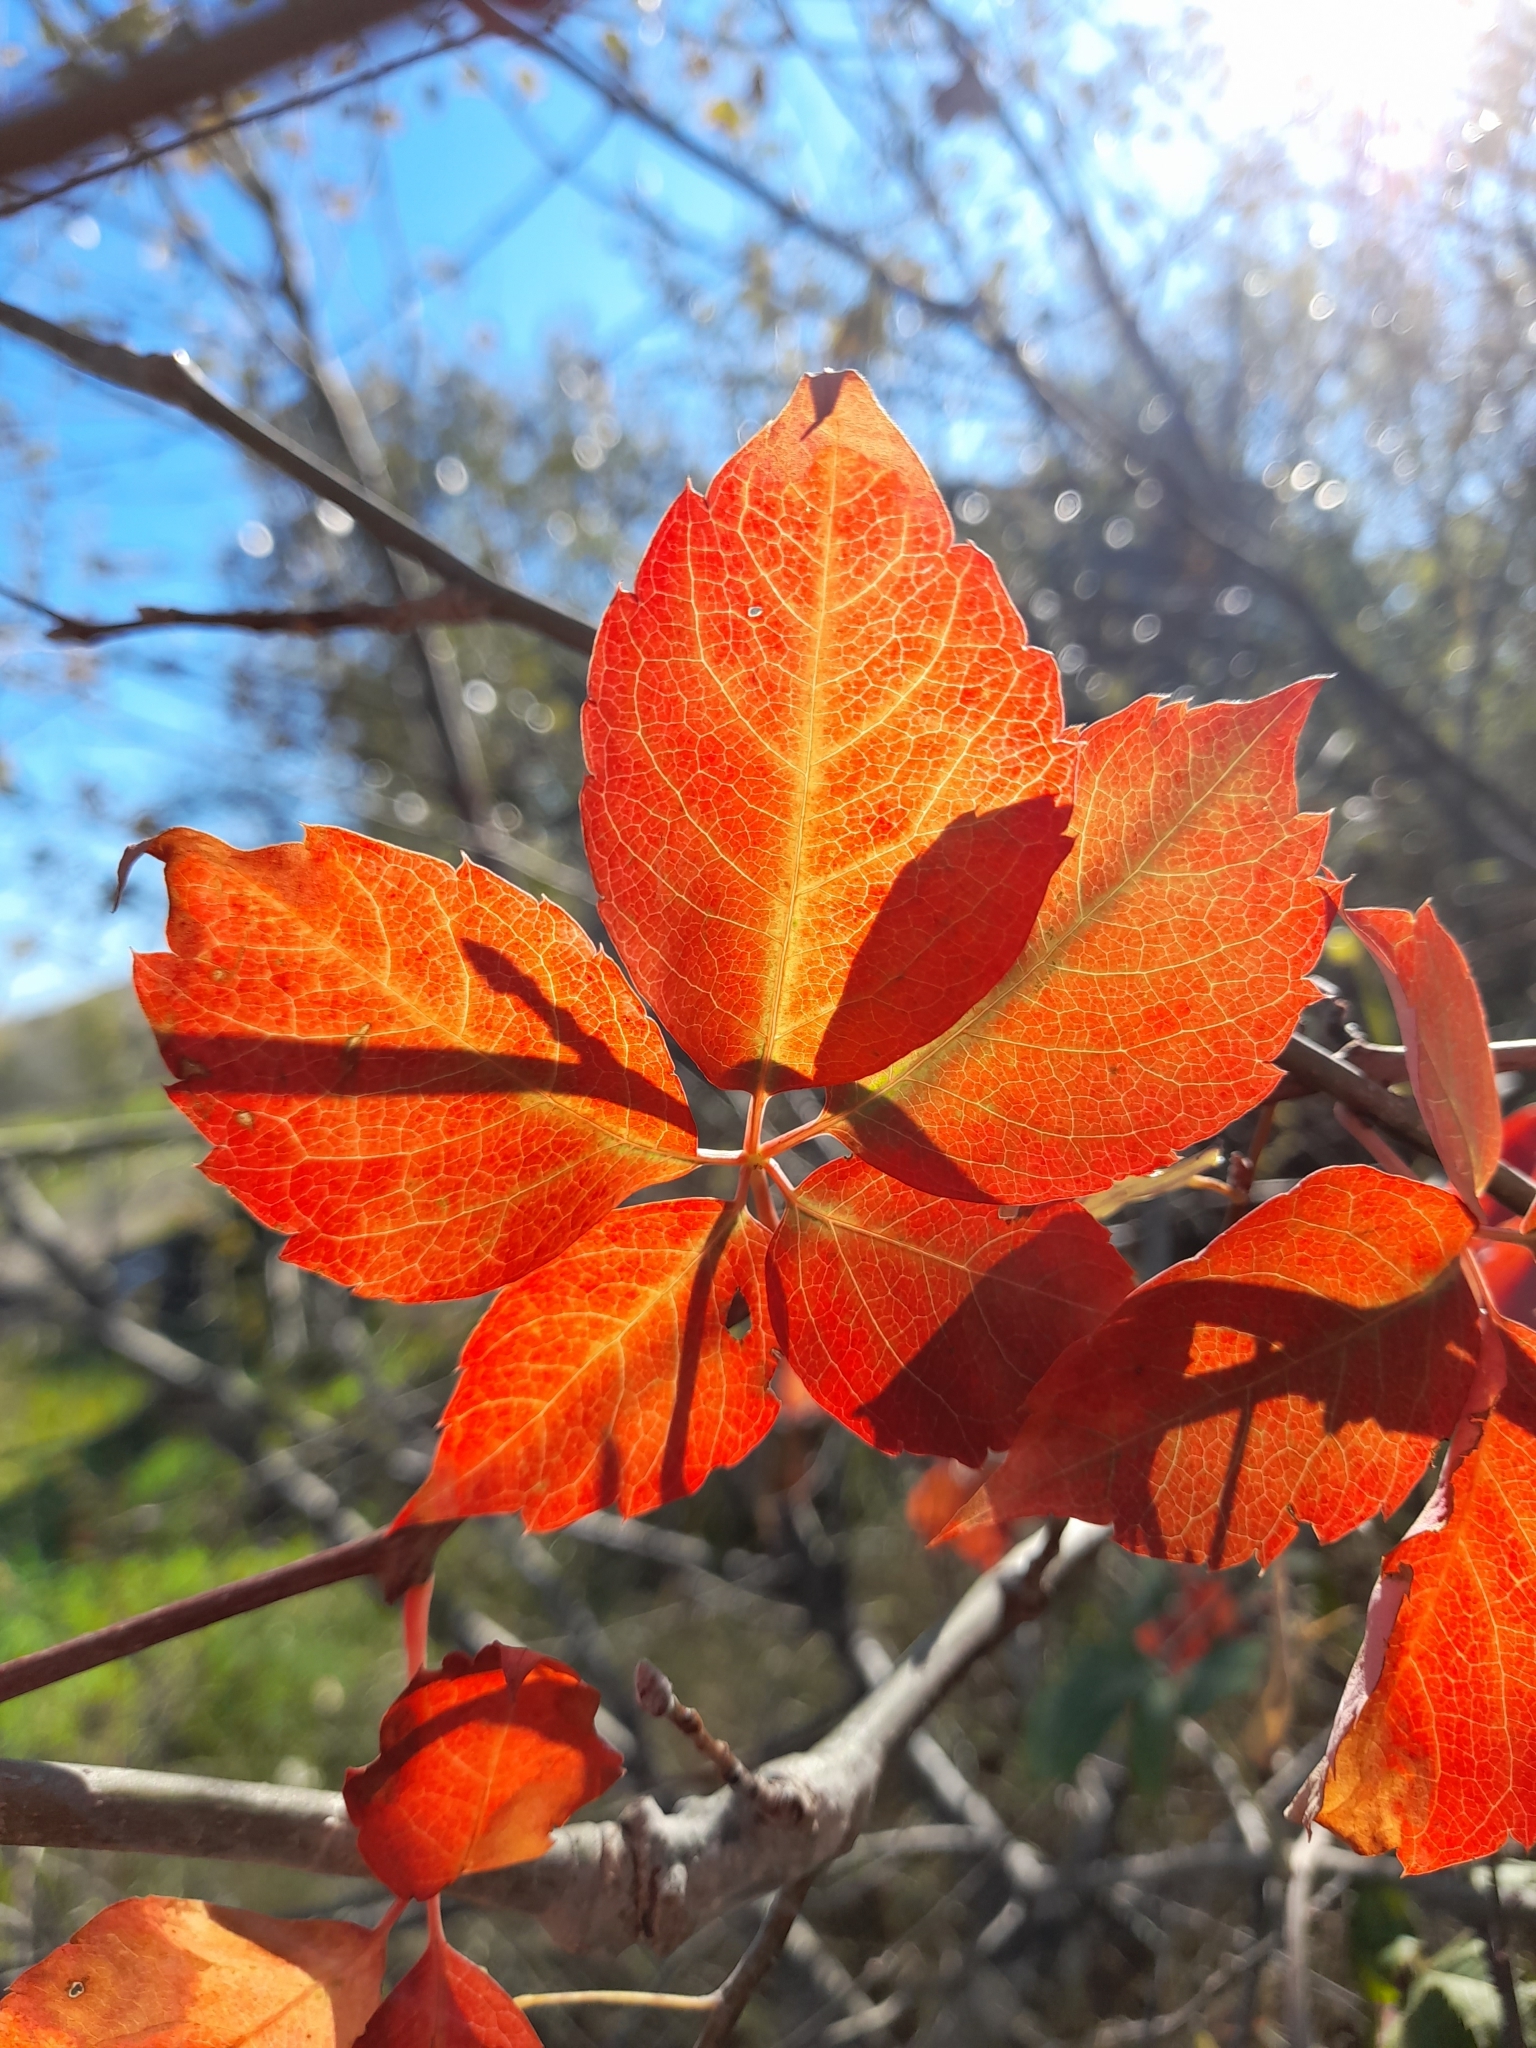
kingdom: Plantae
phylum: Tracheophyta
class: Magnoliopsida
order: Vitales
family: Vitaceae
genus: Parthenocissus
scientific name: Parthenocissus quinquefolia
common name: Virginia-creeper
